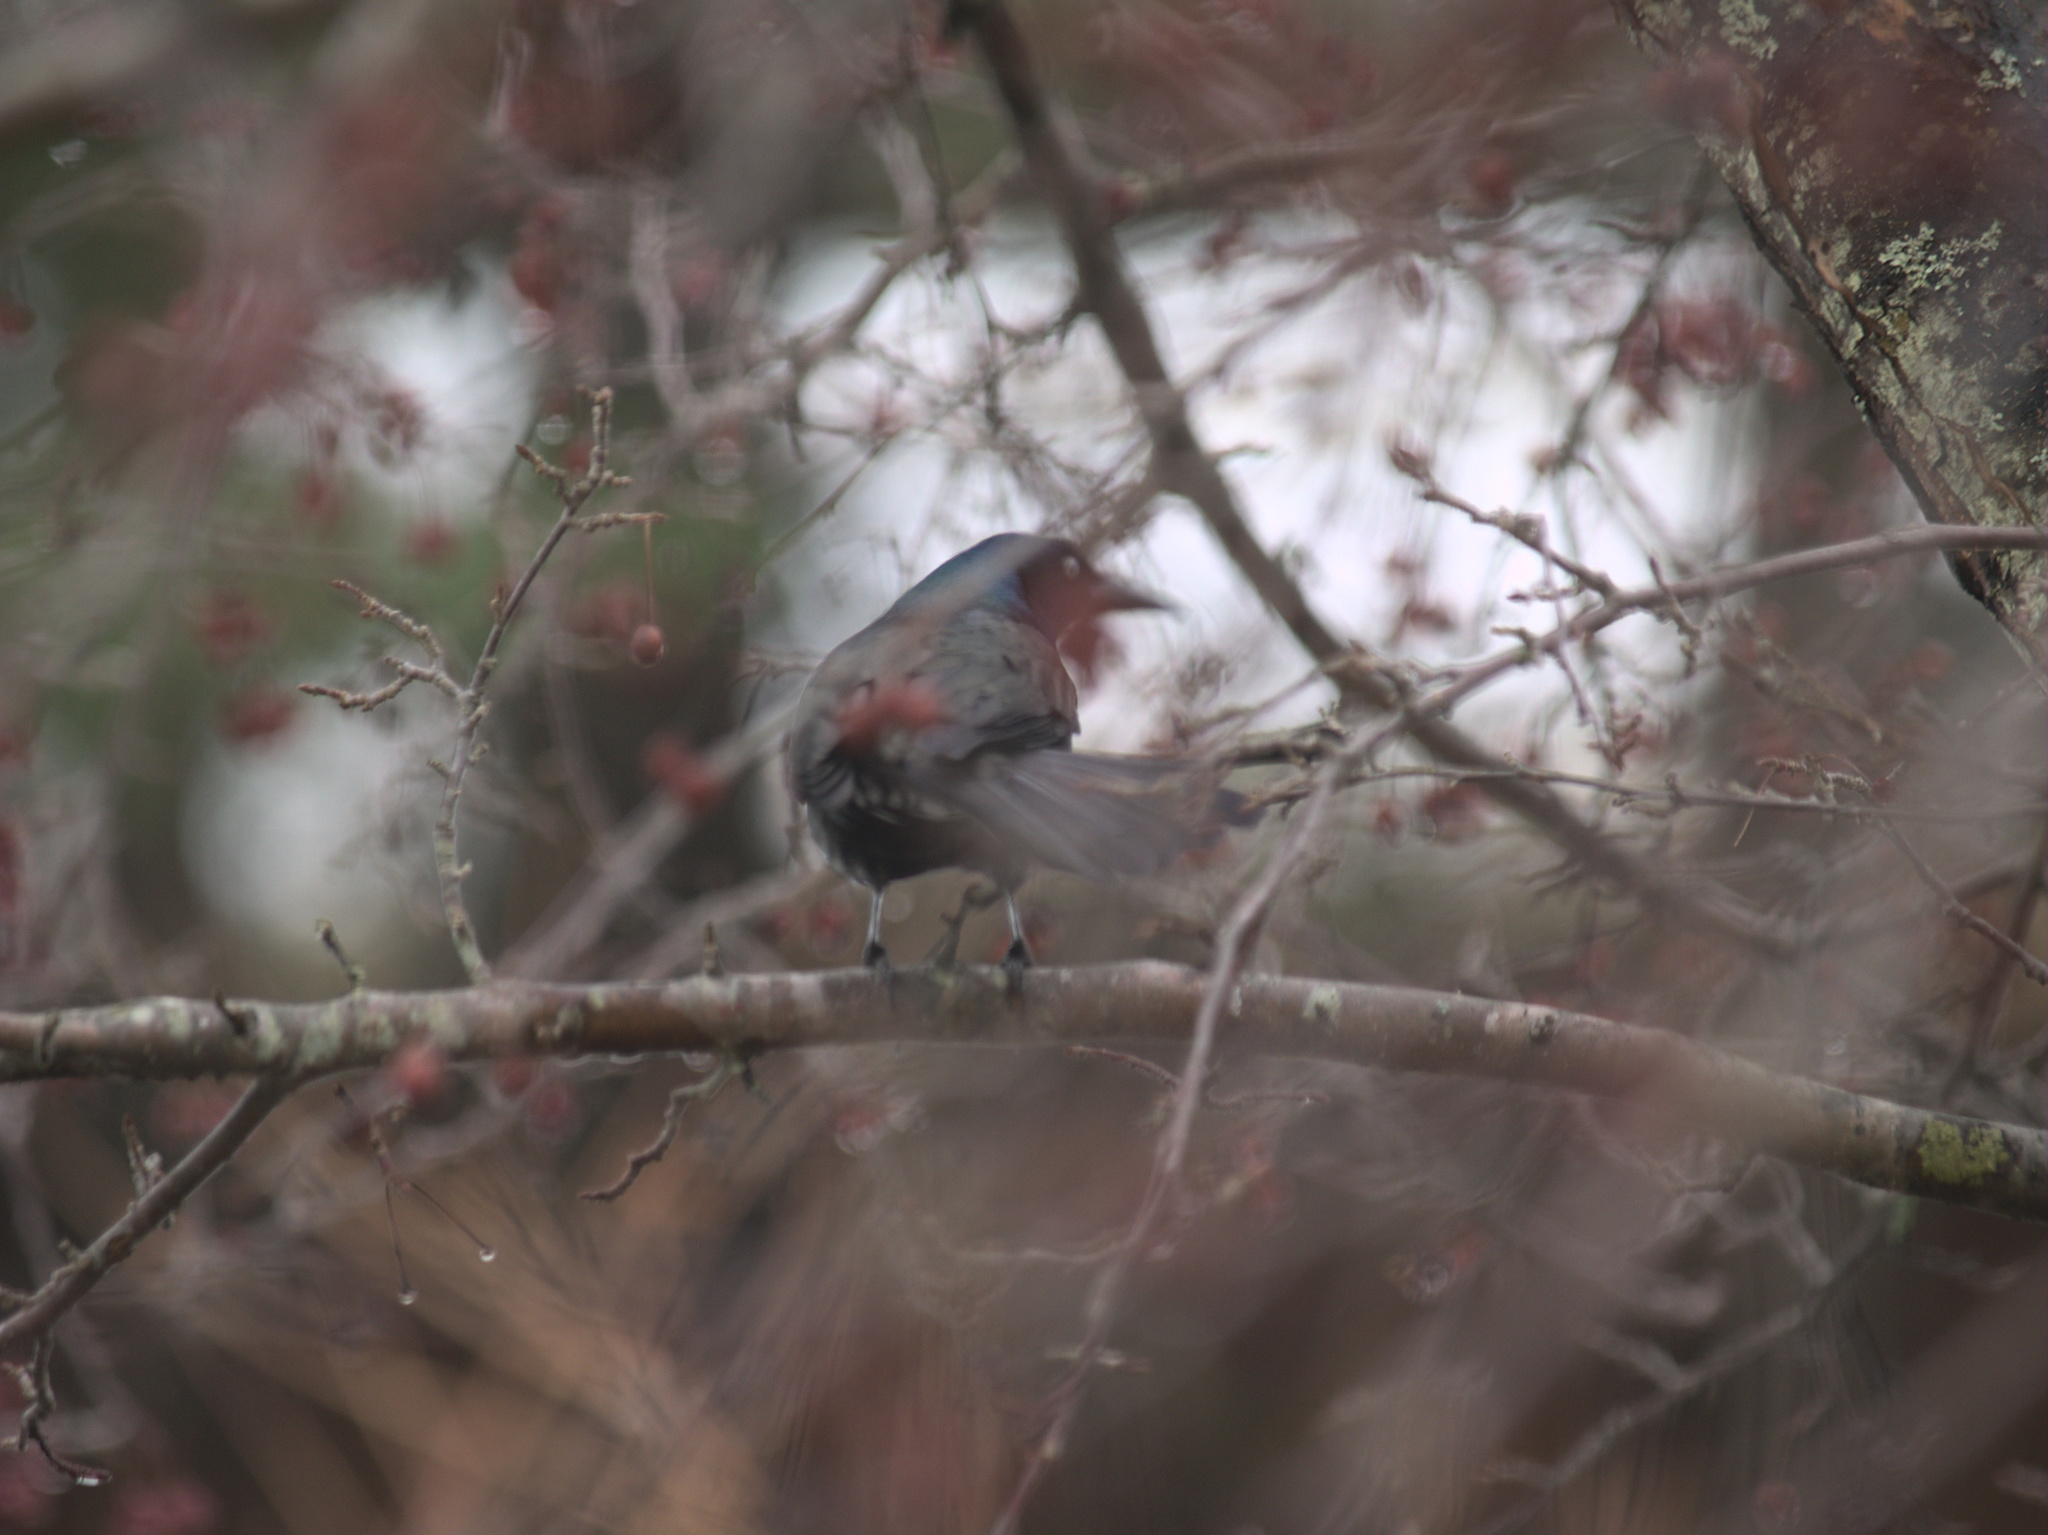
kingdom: Animalia
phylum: Chordata
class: Aves
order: Passeriformes
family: Icteridae
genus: Quiscalus
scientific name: Quiscalus quiscula
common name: Common grackle
